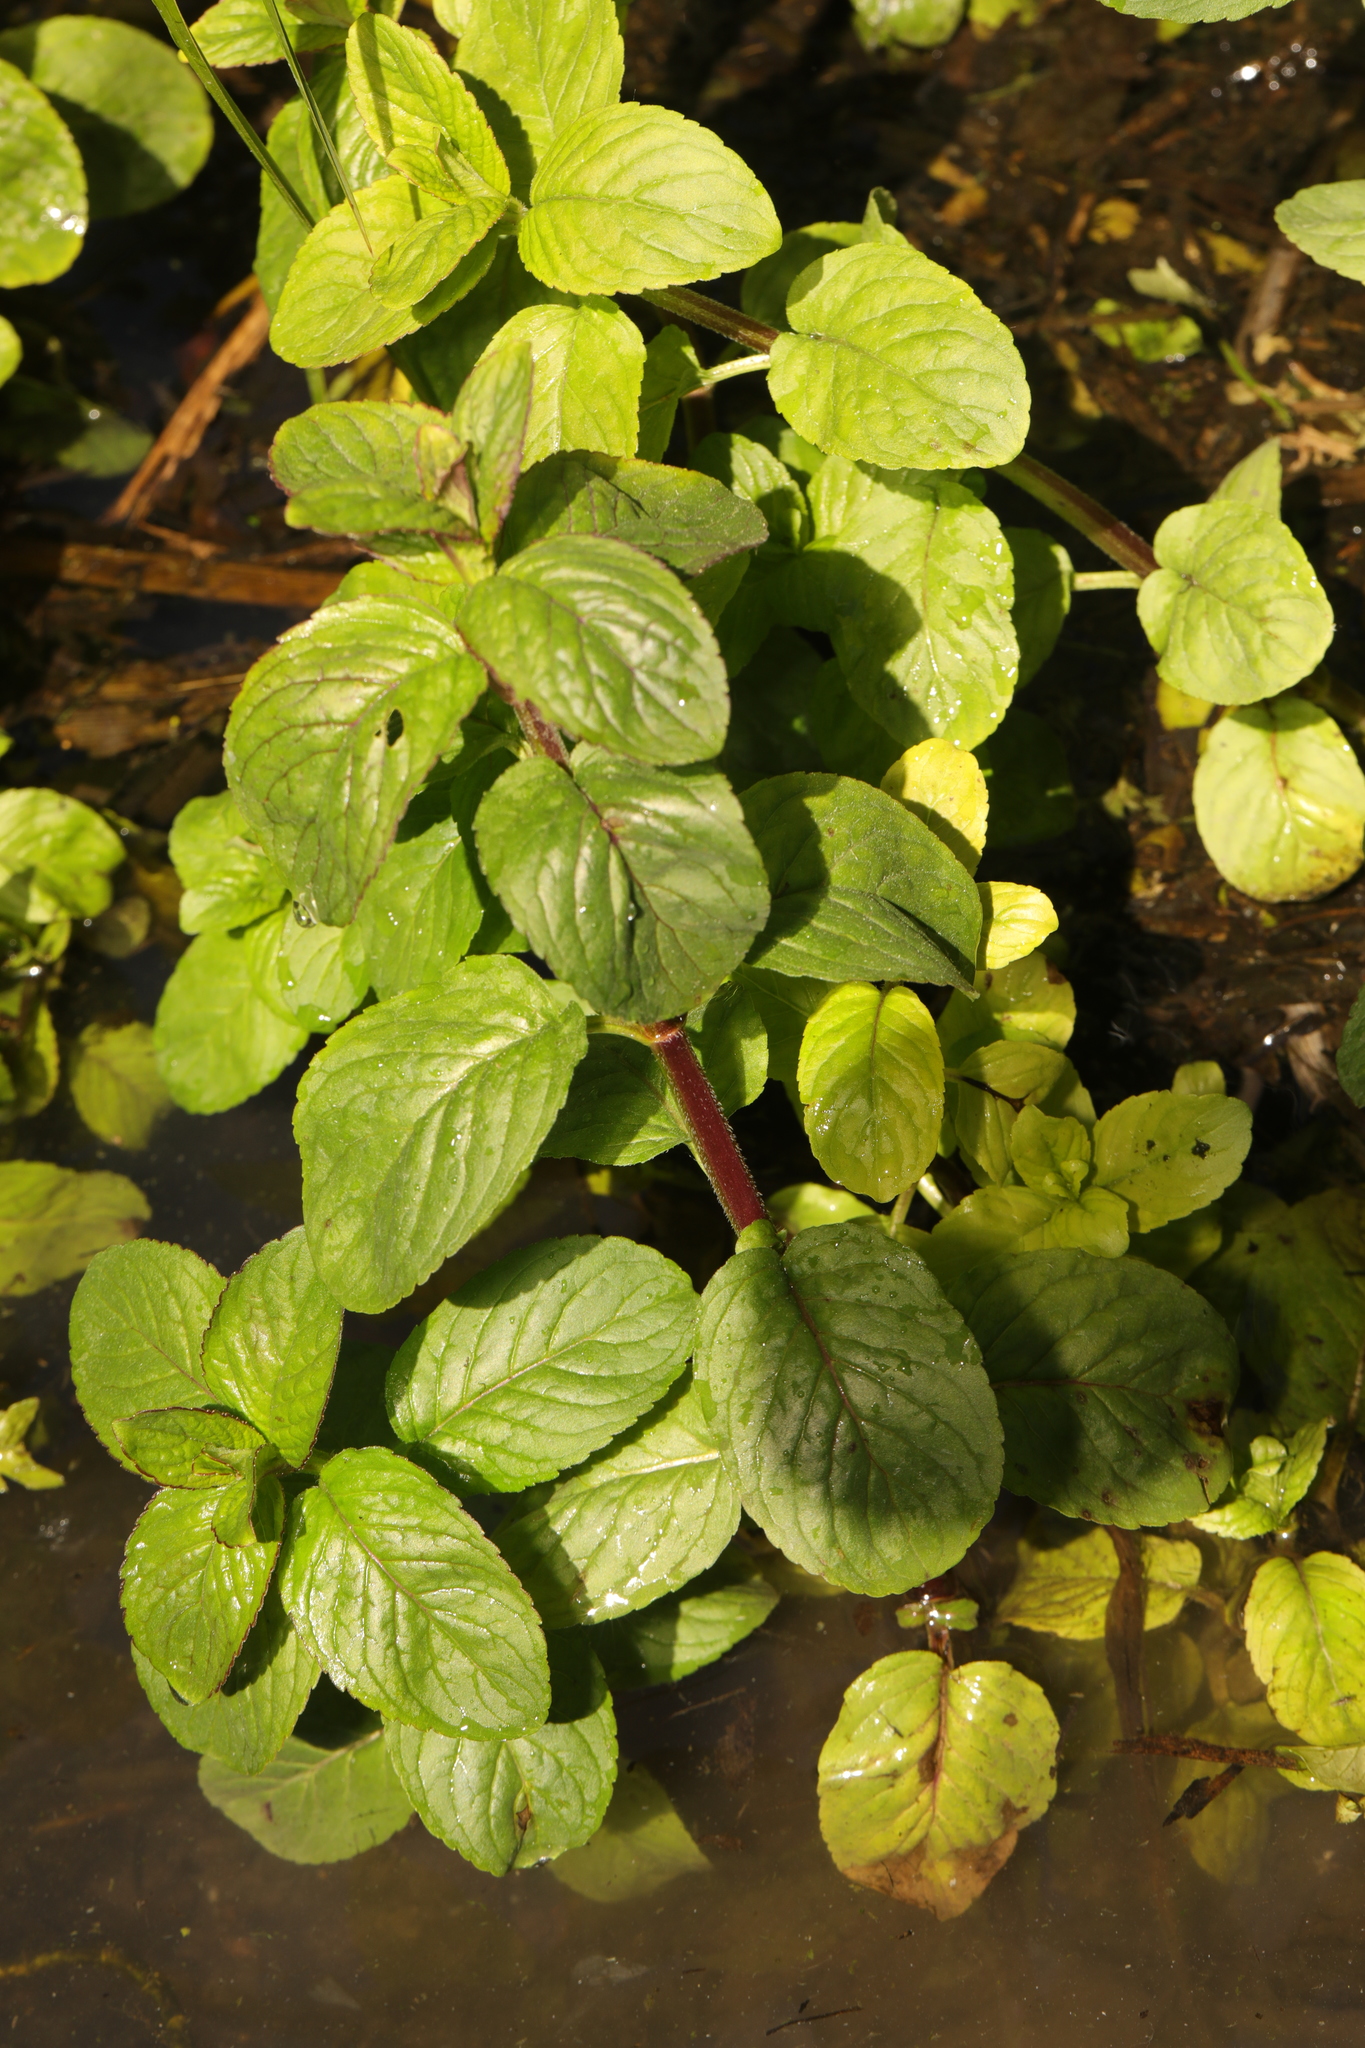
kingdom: Plantae
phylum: Tracheophyta
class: Magnoliopsida
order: Lamiales
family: Lamiaceae
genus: Mentha
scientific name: Mentha aquatica
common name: Water mint
